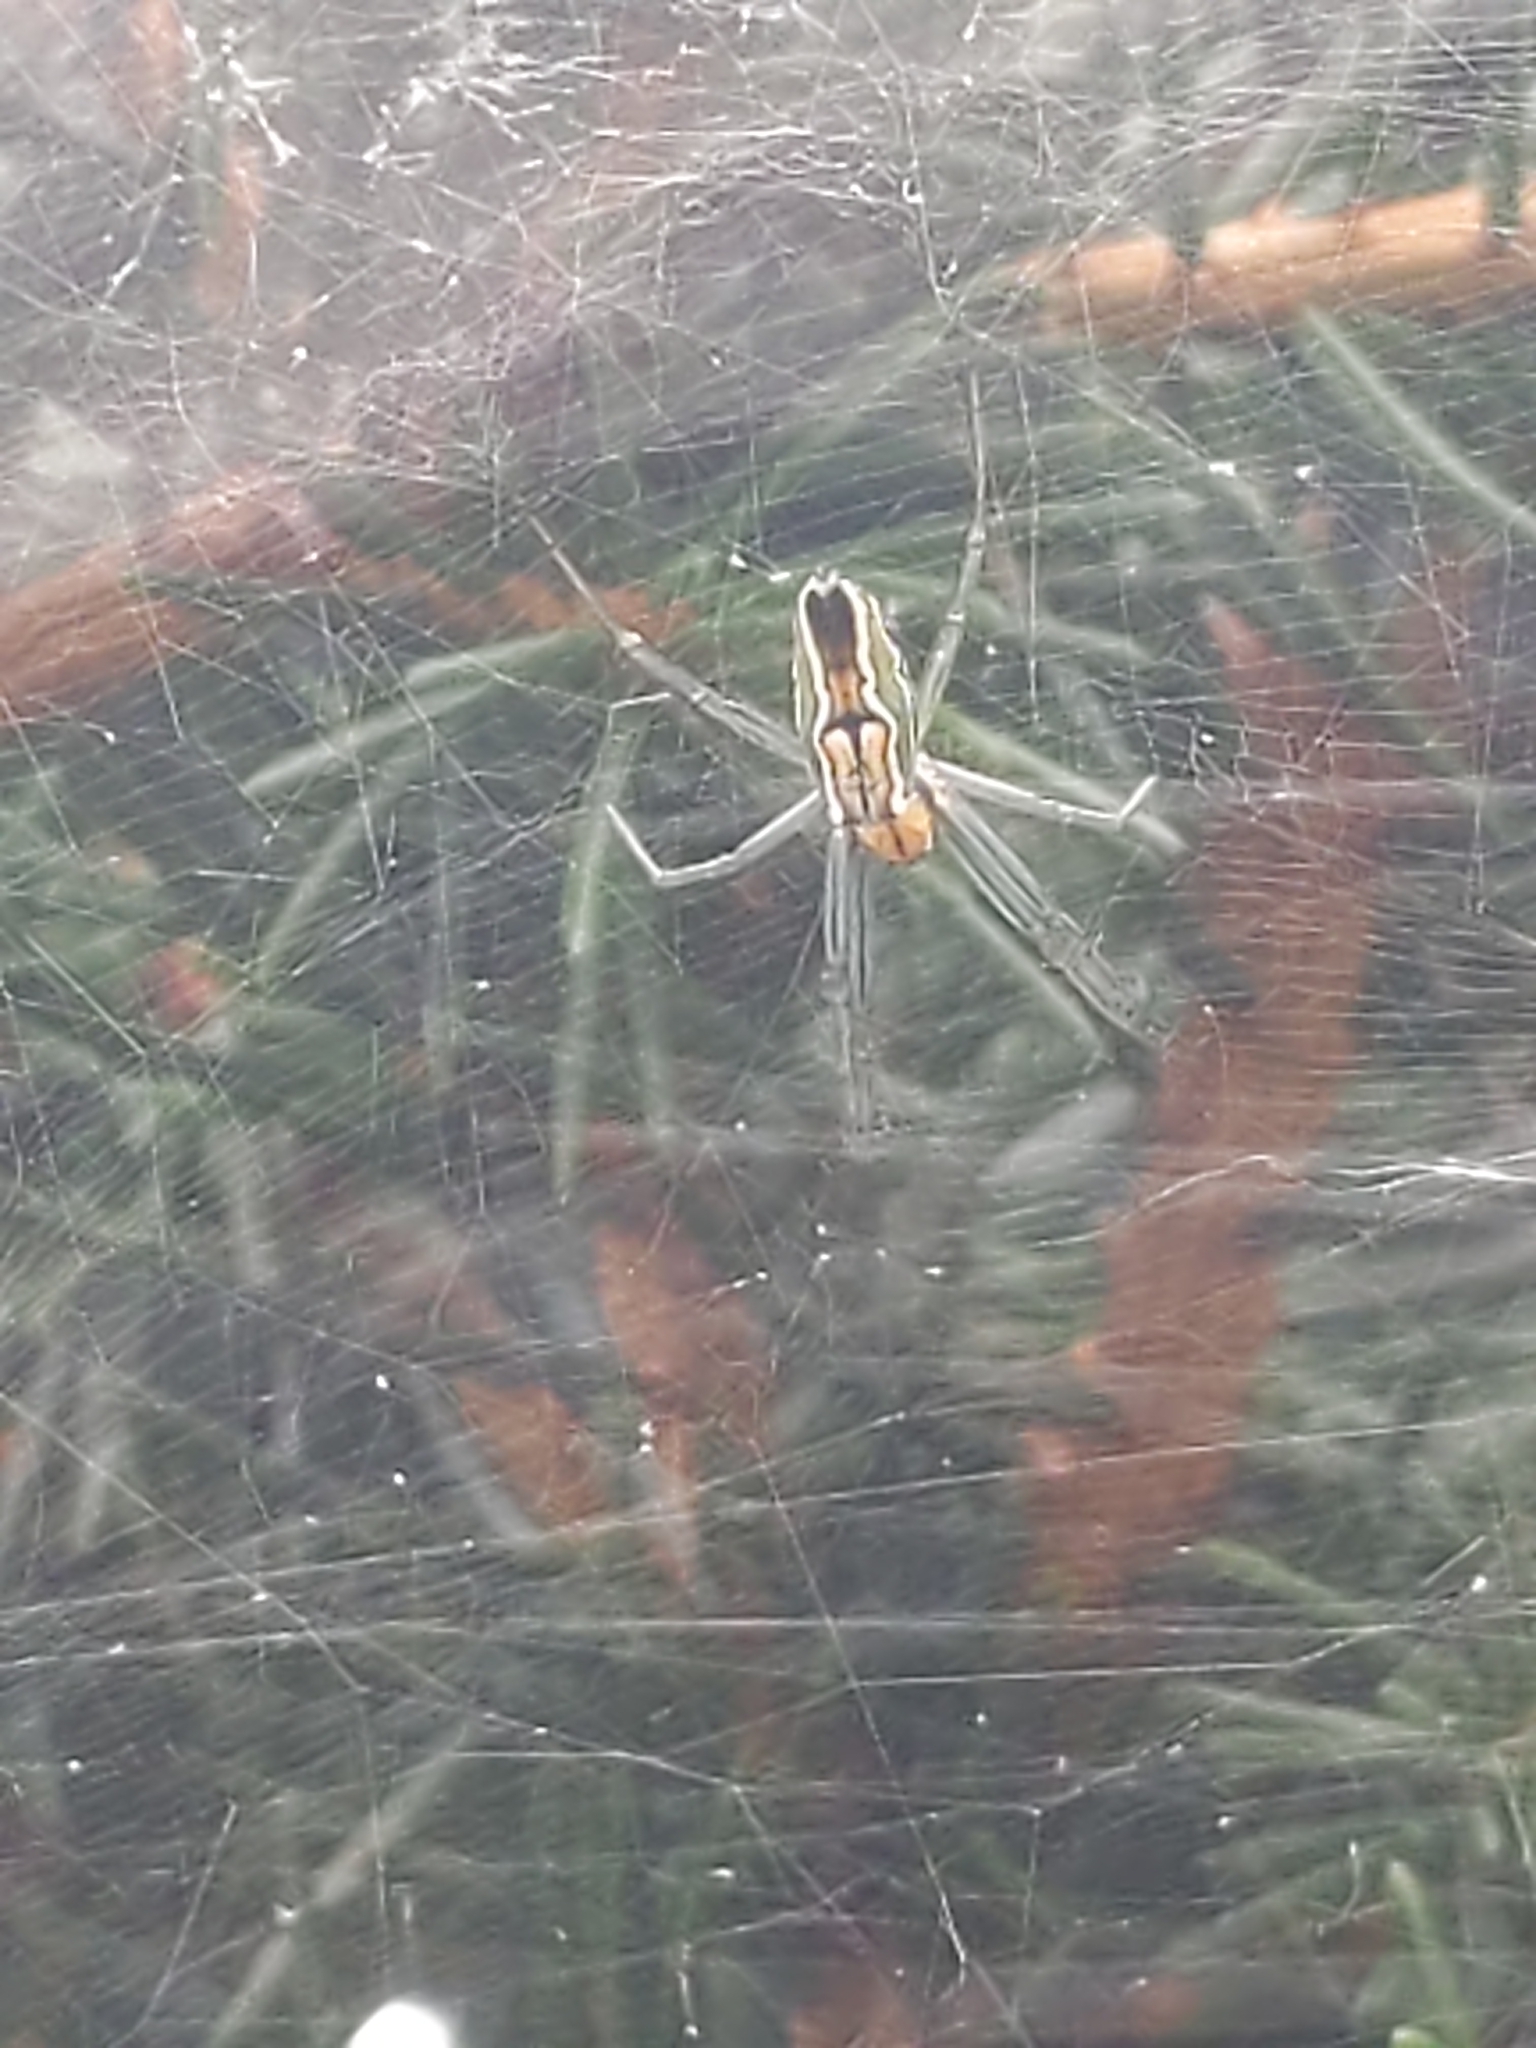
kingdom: Animalia
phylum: Arthropoda
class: Arachnida
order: Araneae
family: Araneidae
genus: Mecynogea
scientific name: Mecynogea lemniscata
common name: Orb weavers
